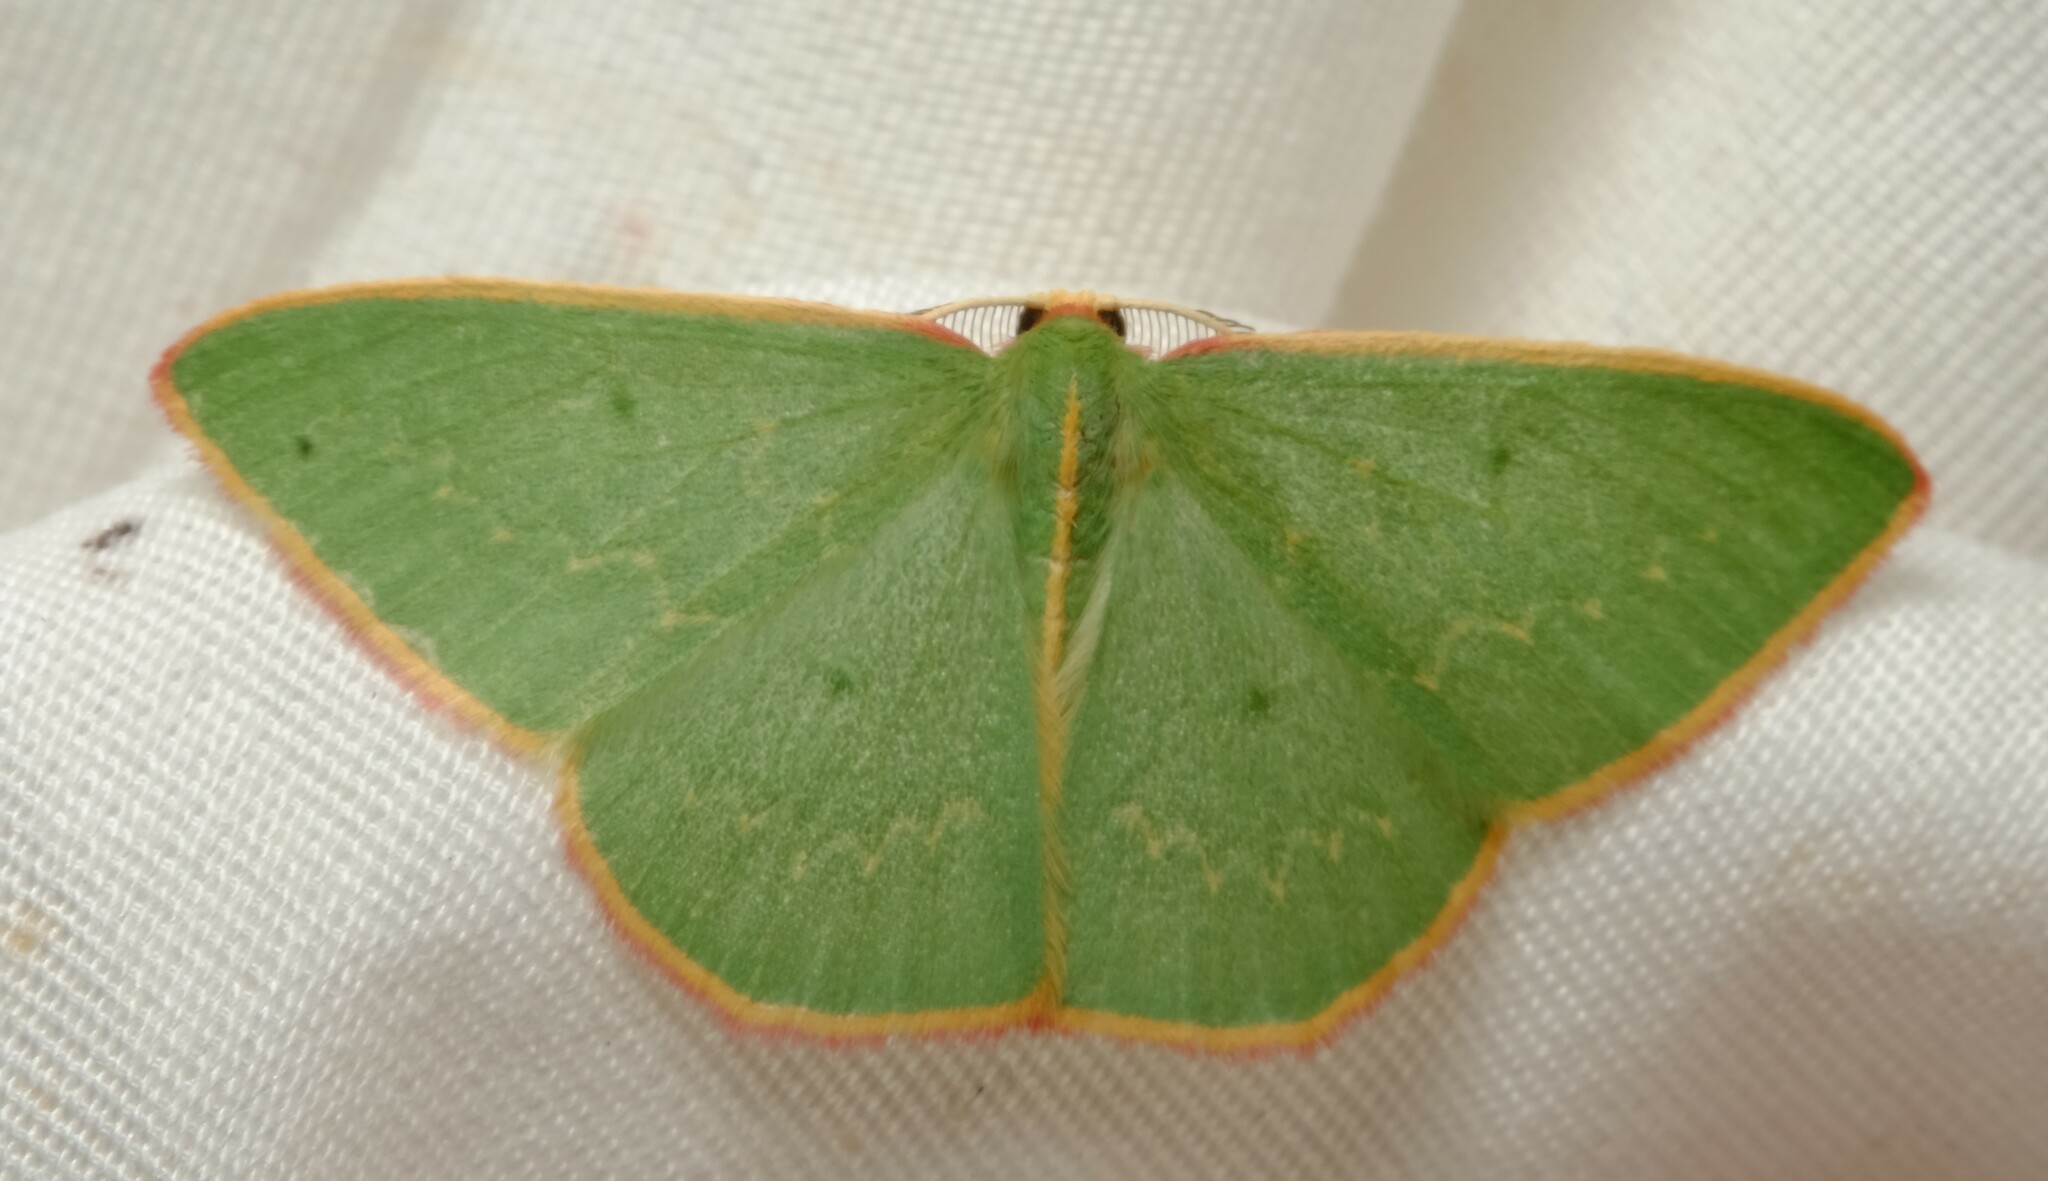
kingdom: Animalia
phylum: Arthropoda
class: Insecta
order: Lepidoptera
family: Geometridae
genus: Chlorocoma
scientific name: Chlorocoma dichloraria
